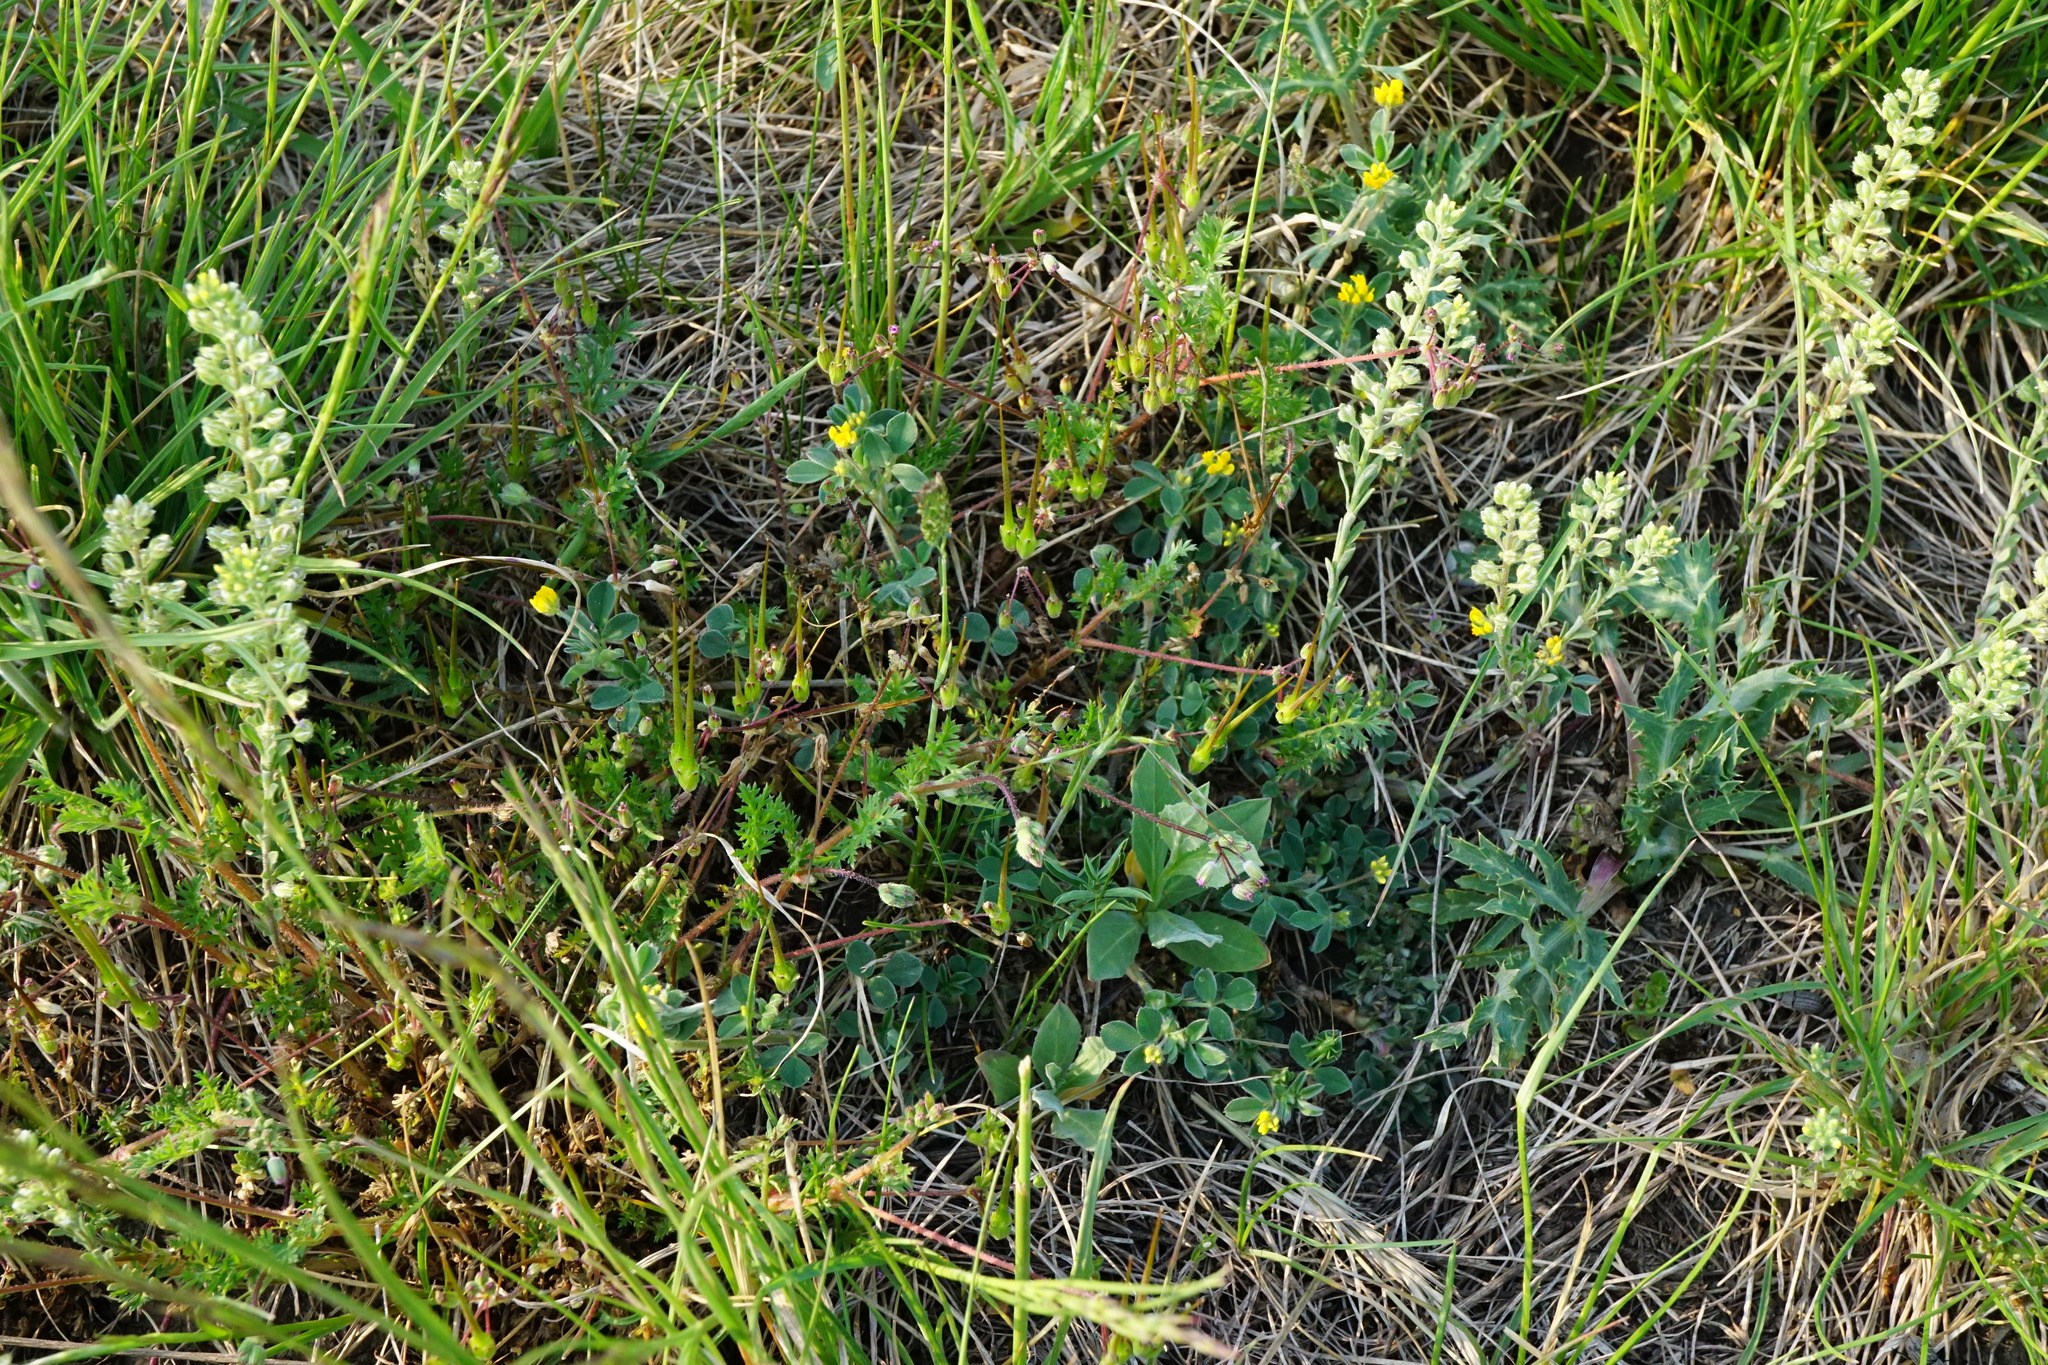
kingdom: Plantae
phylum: Tracheophyta
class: Magnoliopsida
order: Fabales
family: Fabaceae
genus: Medicago
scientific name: Medicago minima
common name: Little bur-clover
